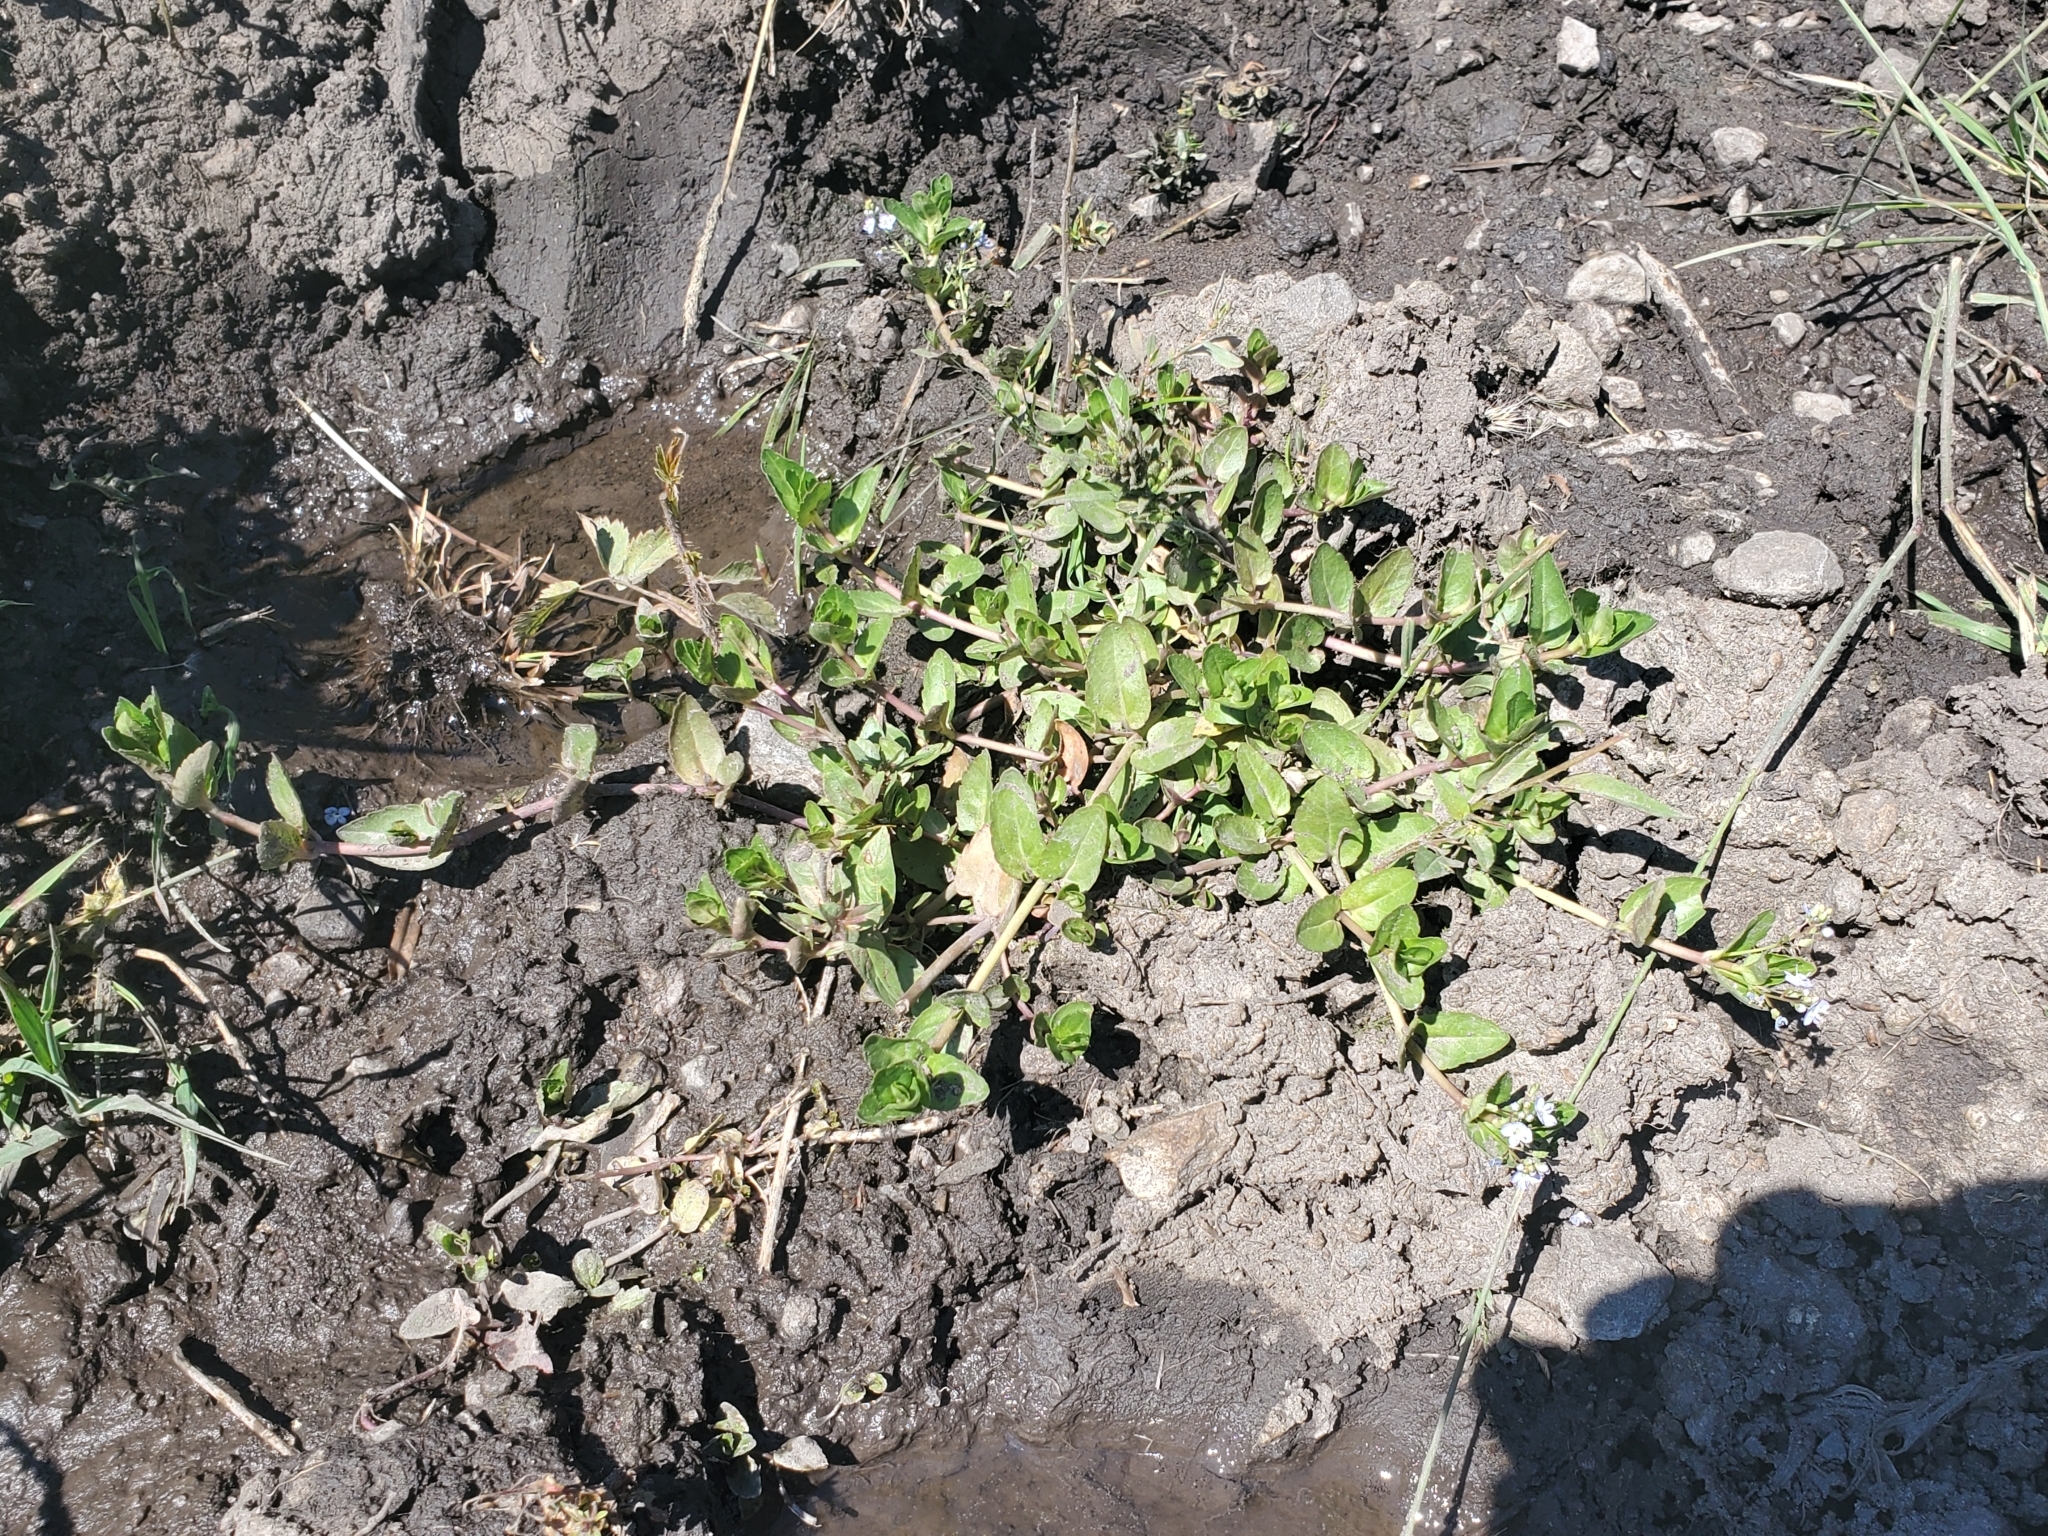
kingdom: Plantae
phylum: Tracheophyta
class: Magnoliopsida
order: Lamiales
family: Plantaginaceae
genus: Veronica
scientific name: Veronica americana
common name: American brooklime
